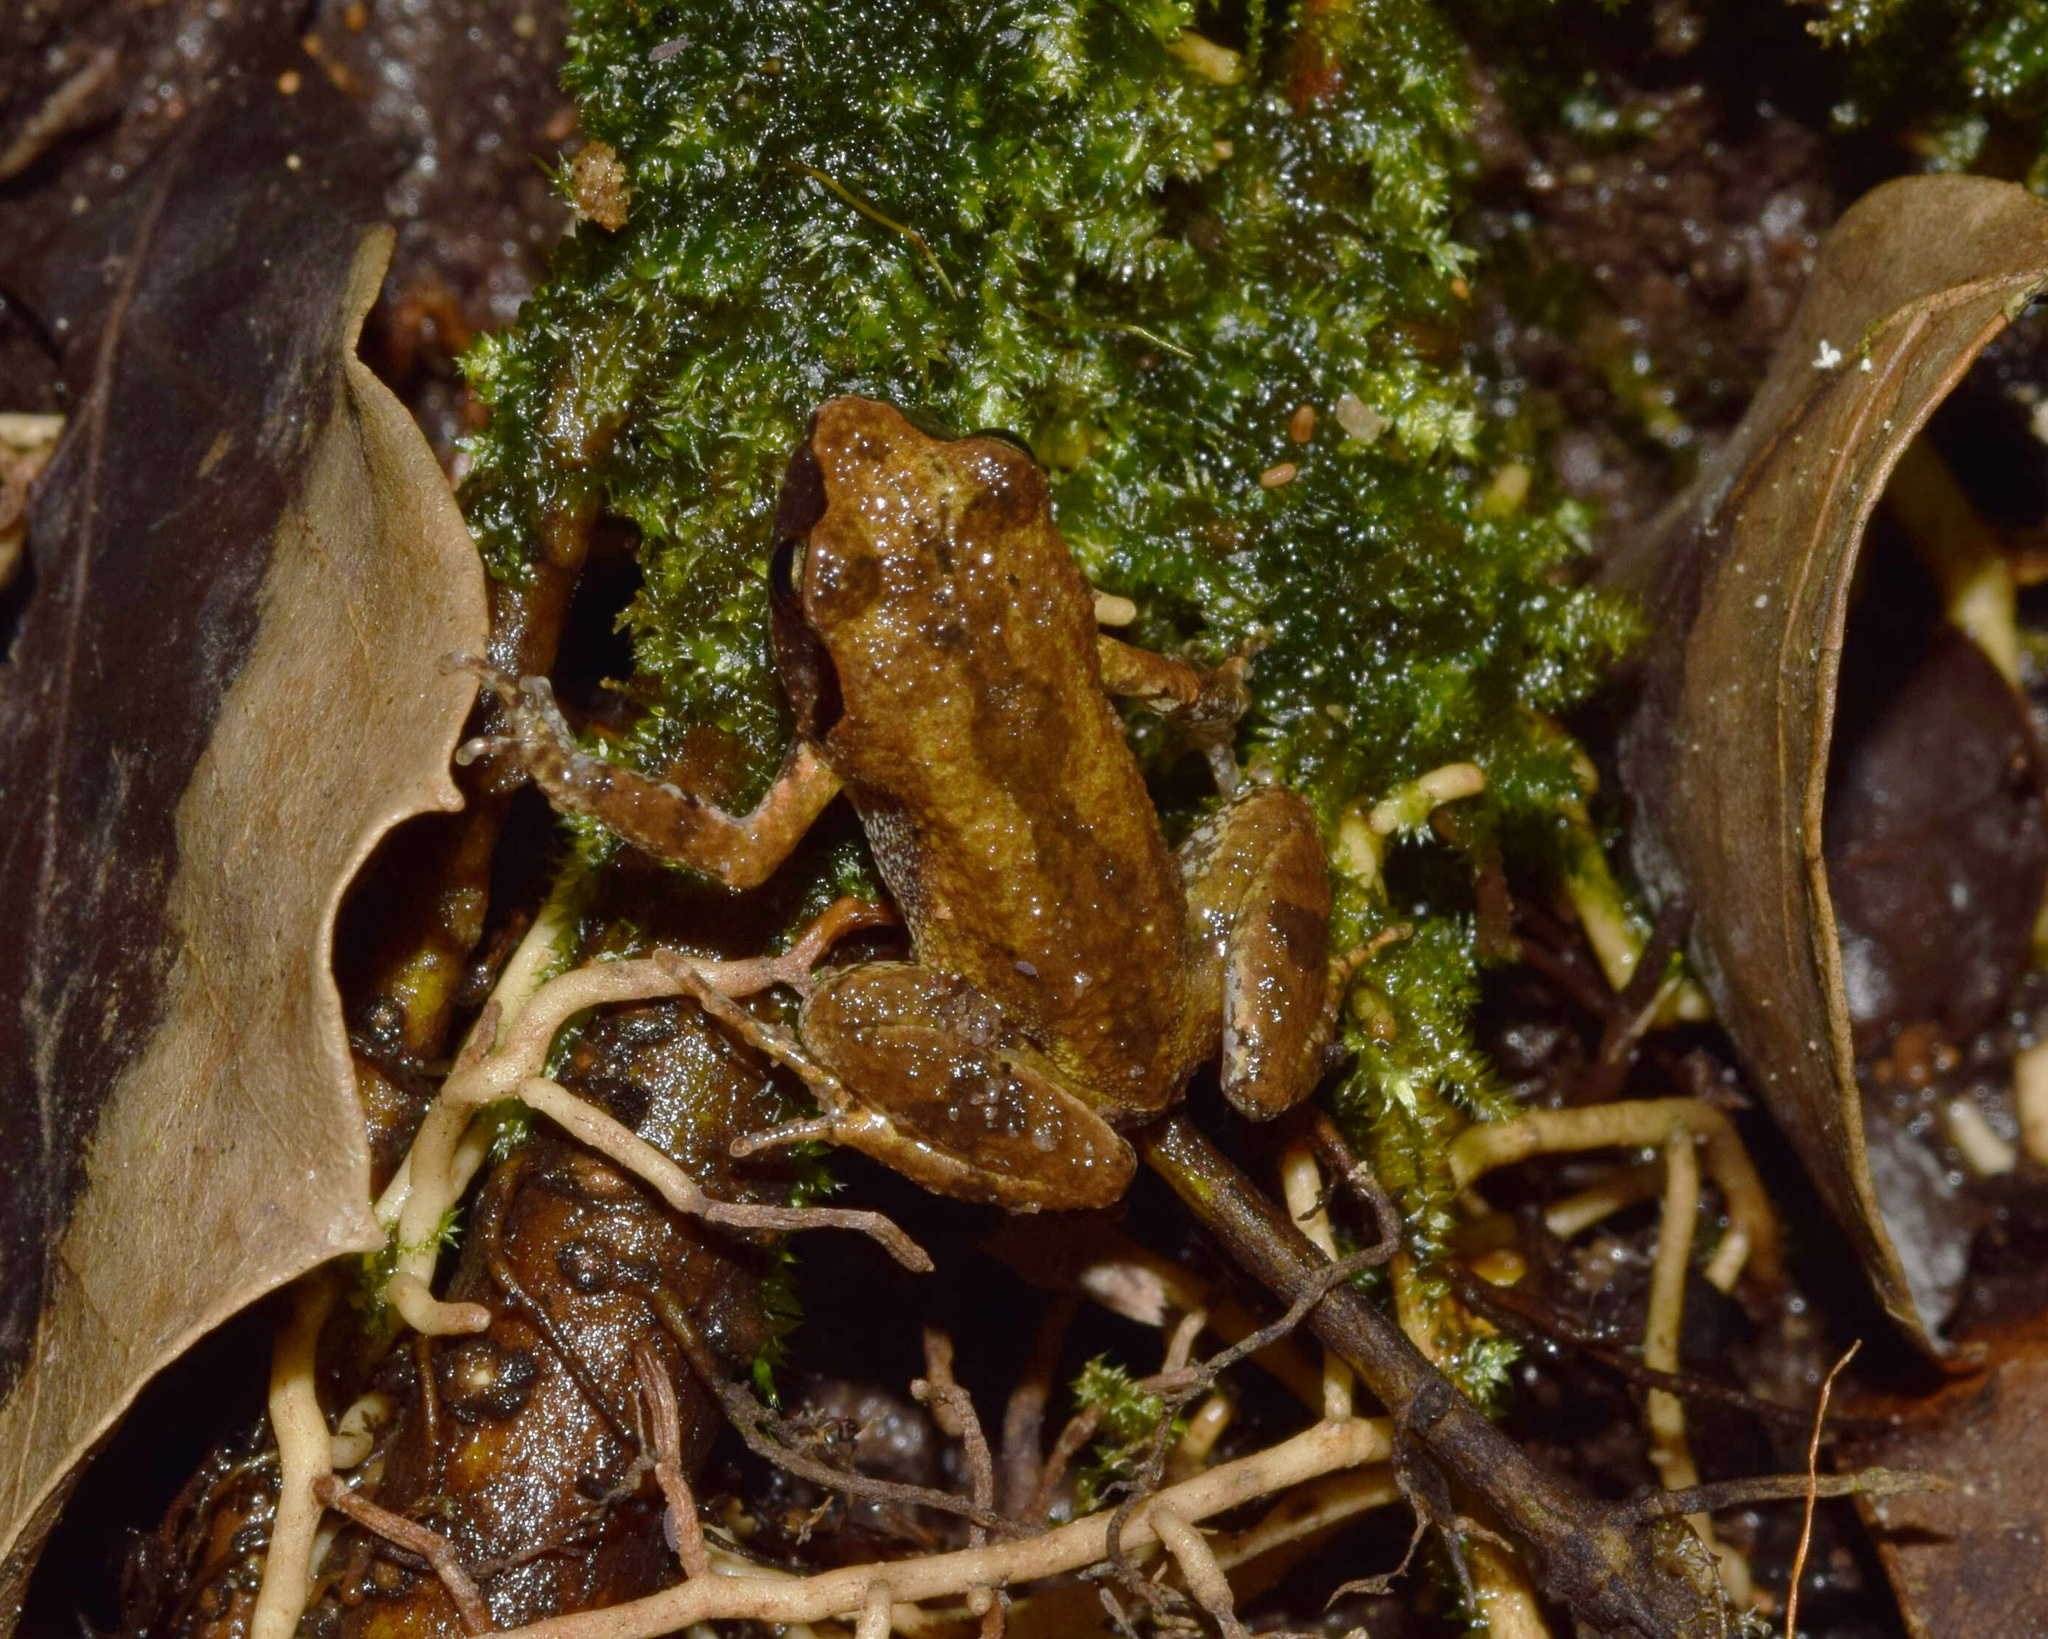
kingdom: Animalia
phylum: Chordata
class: Amphibia
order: Anura
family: Arthroleptidae
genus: Arthroleptis
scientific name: Arthroleptis wahlbergii
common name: Bush squeaker
